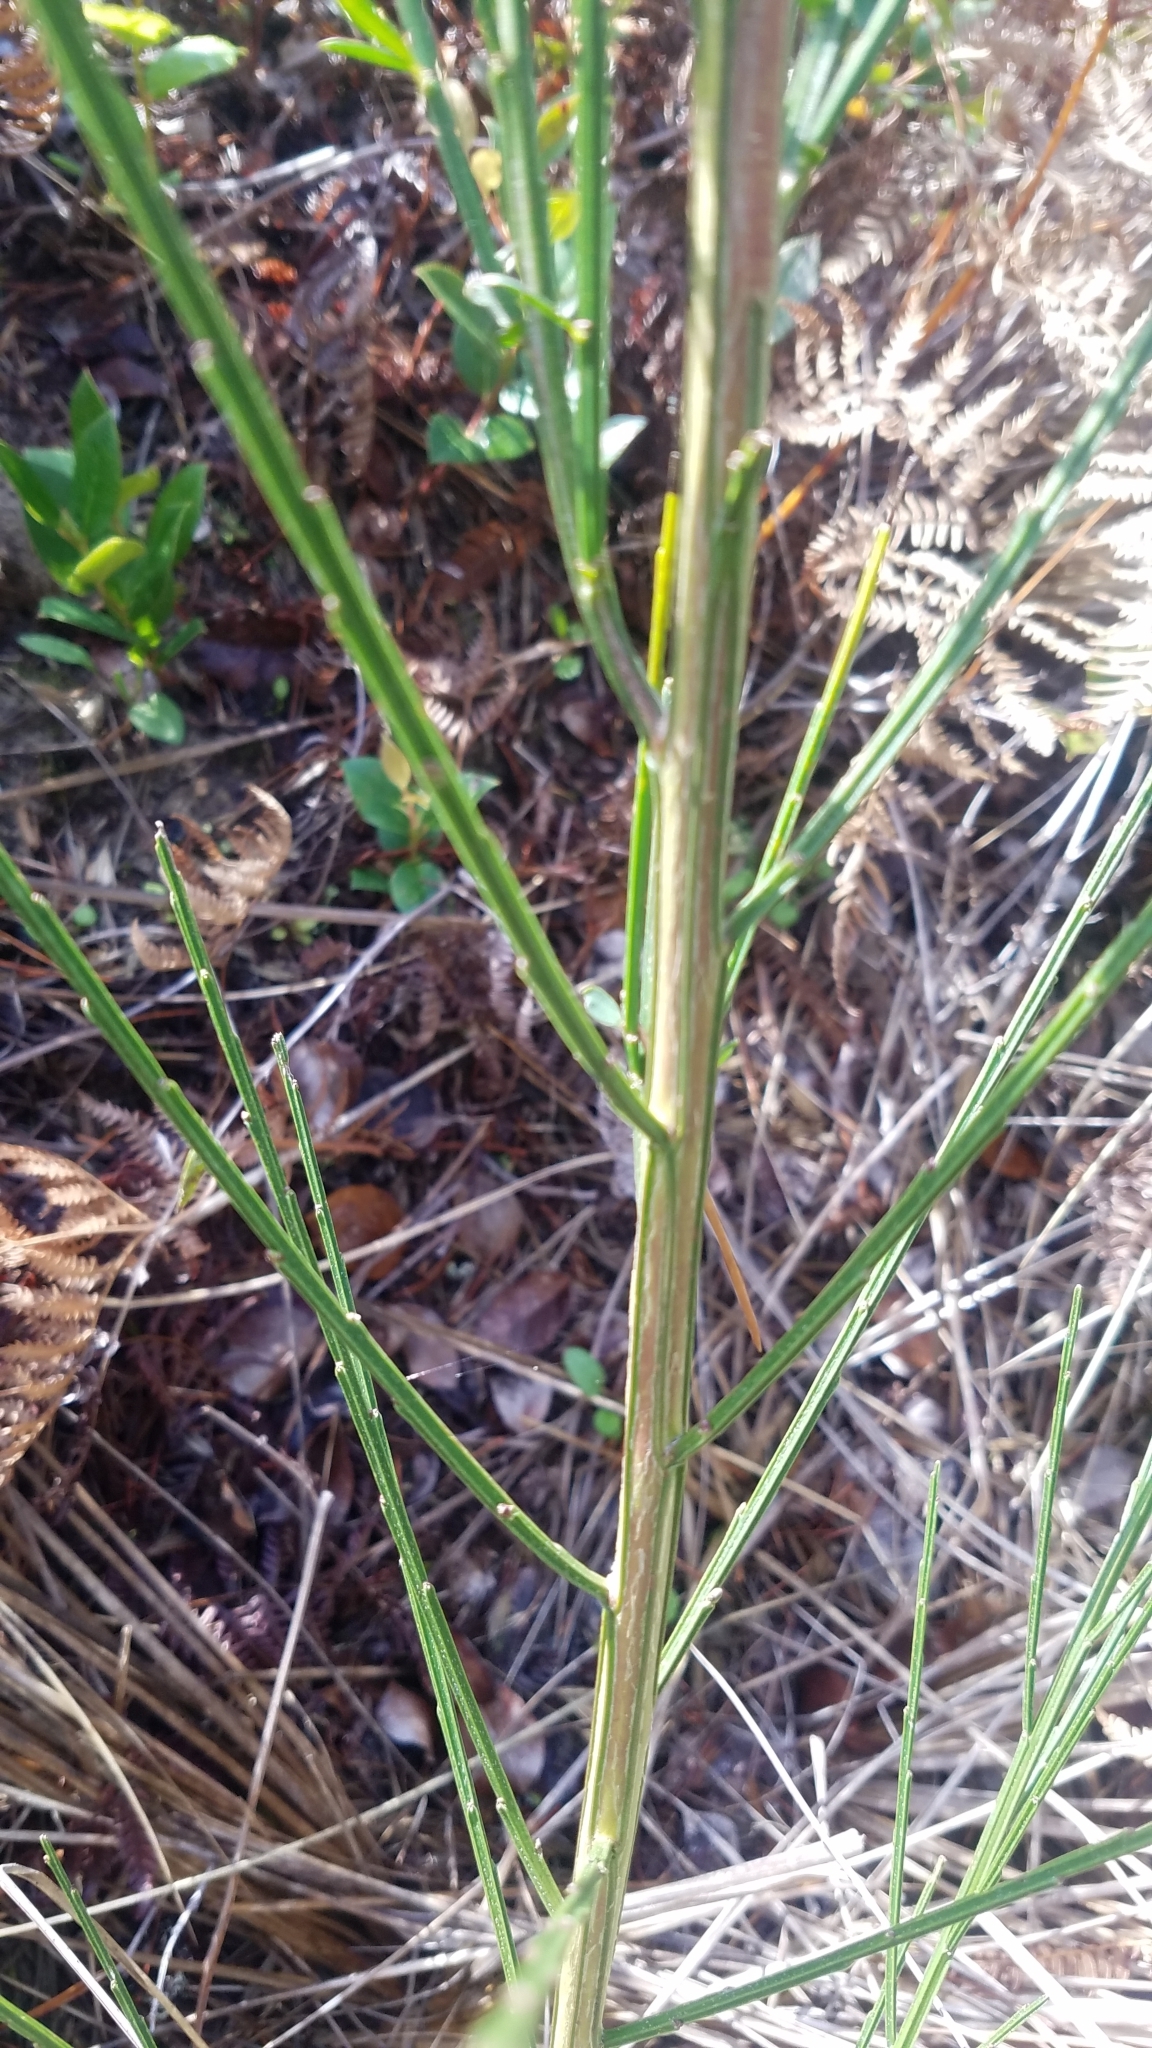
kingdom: Plantae
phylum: Tracheophyta
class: Magnoliopsida
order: Fabales
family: Fabaceae
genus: Cytisus
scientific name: Cytisus scoparius
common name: Scotch broom
